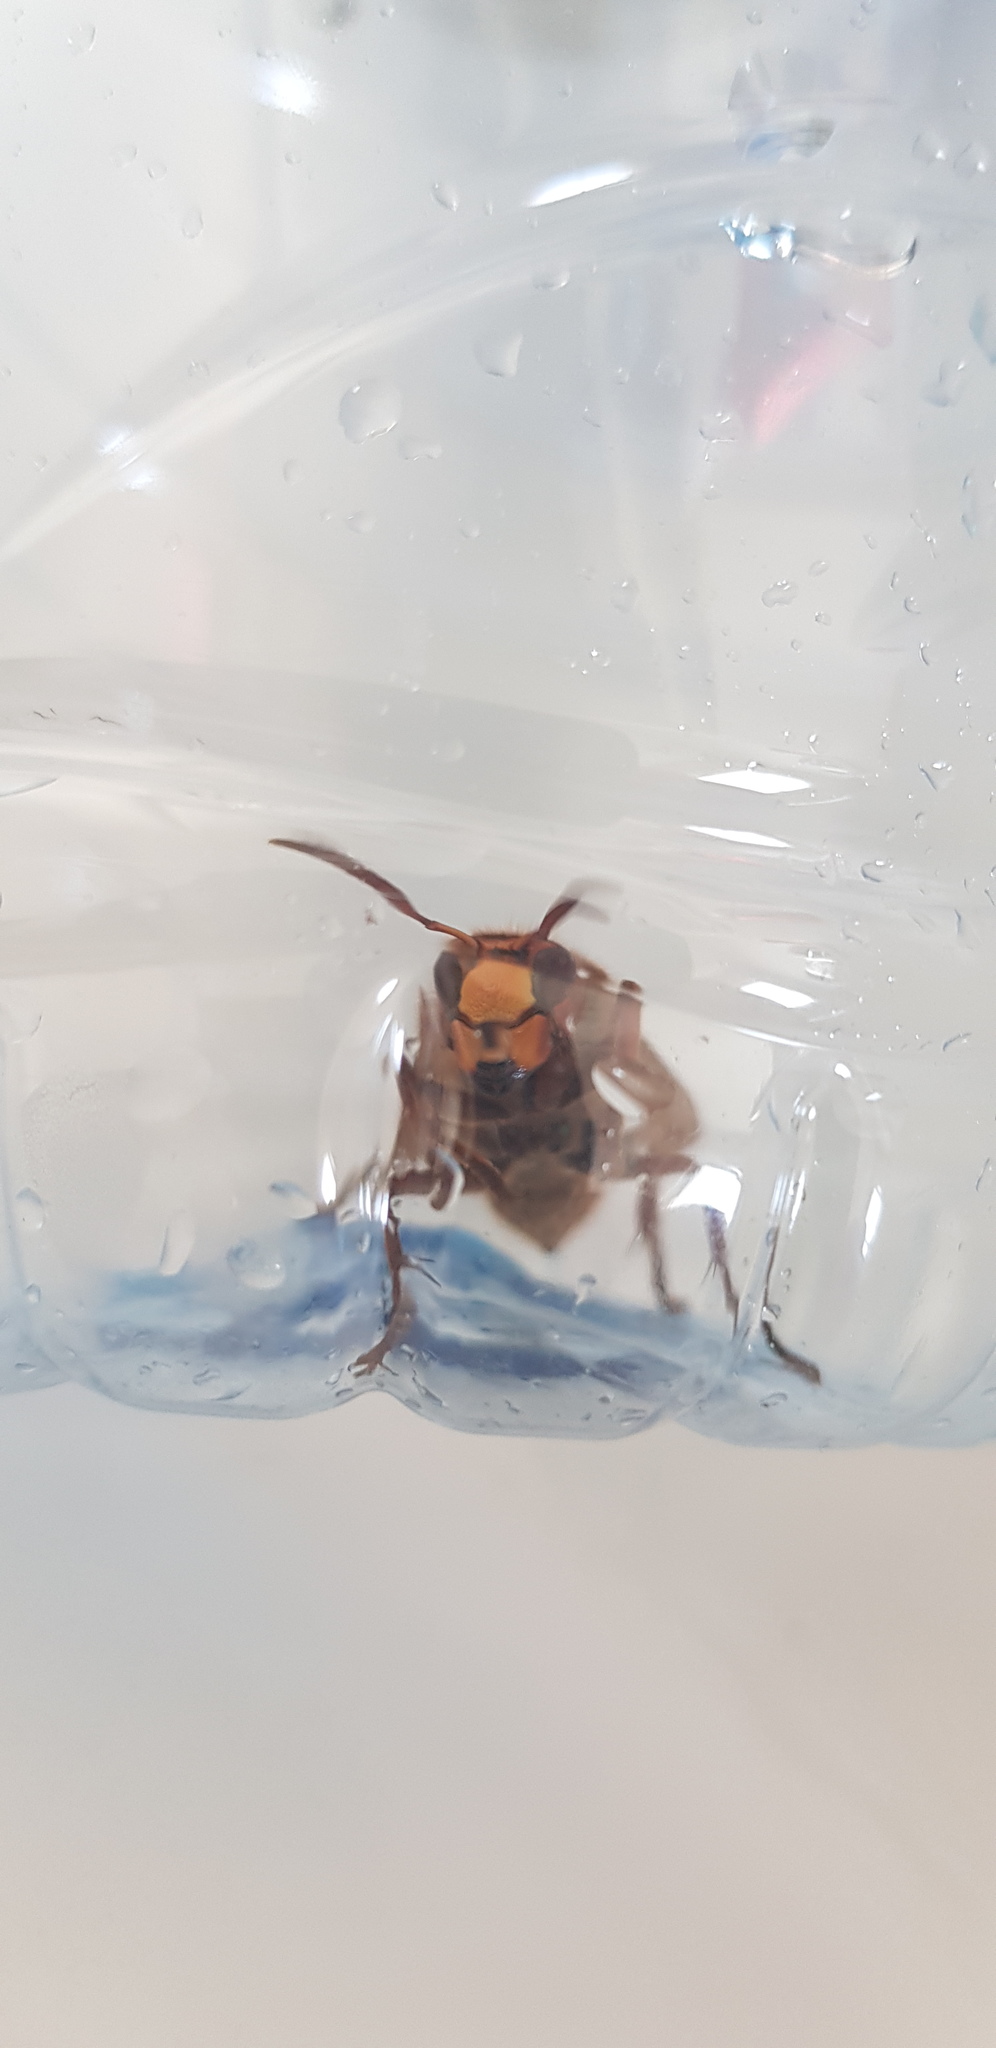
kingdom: Animalia
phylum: Arthropoda
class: Insecta
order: Hymenoptera
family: Vespidae
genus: Vespa
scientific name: Vespa crabro
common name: Hornet
